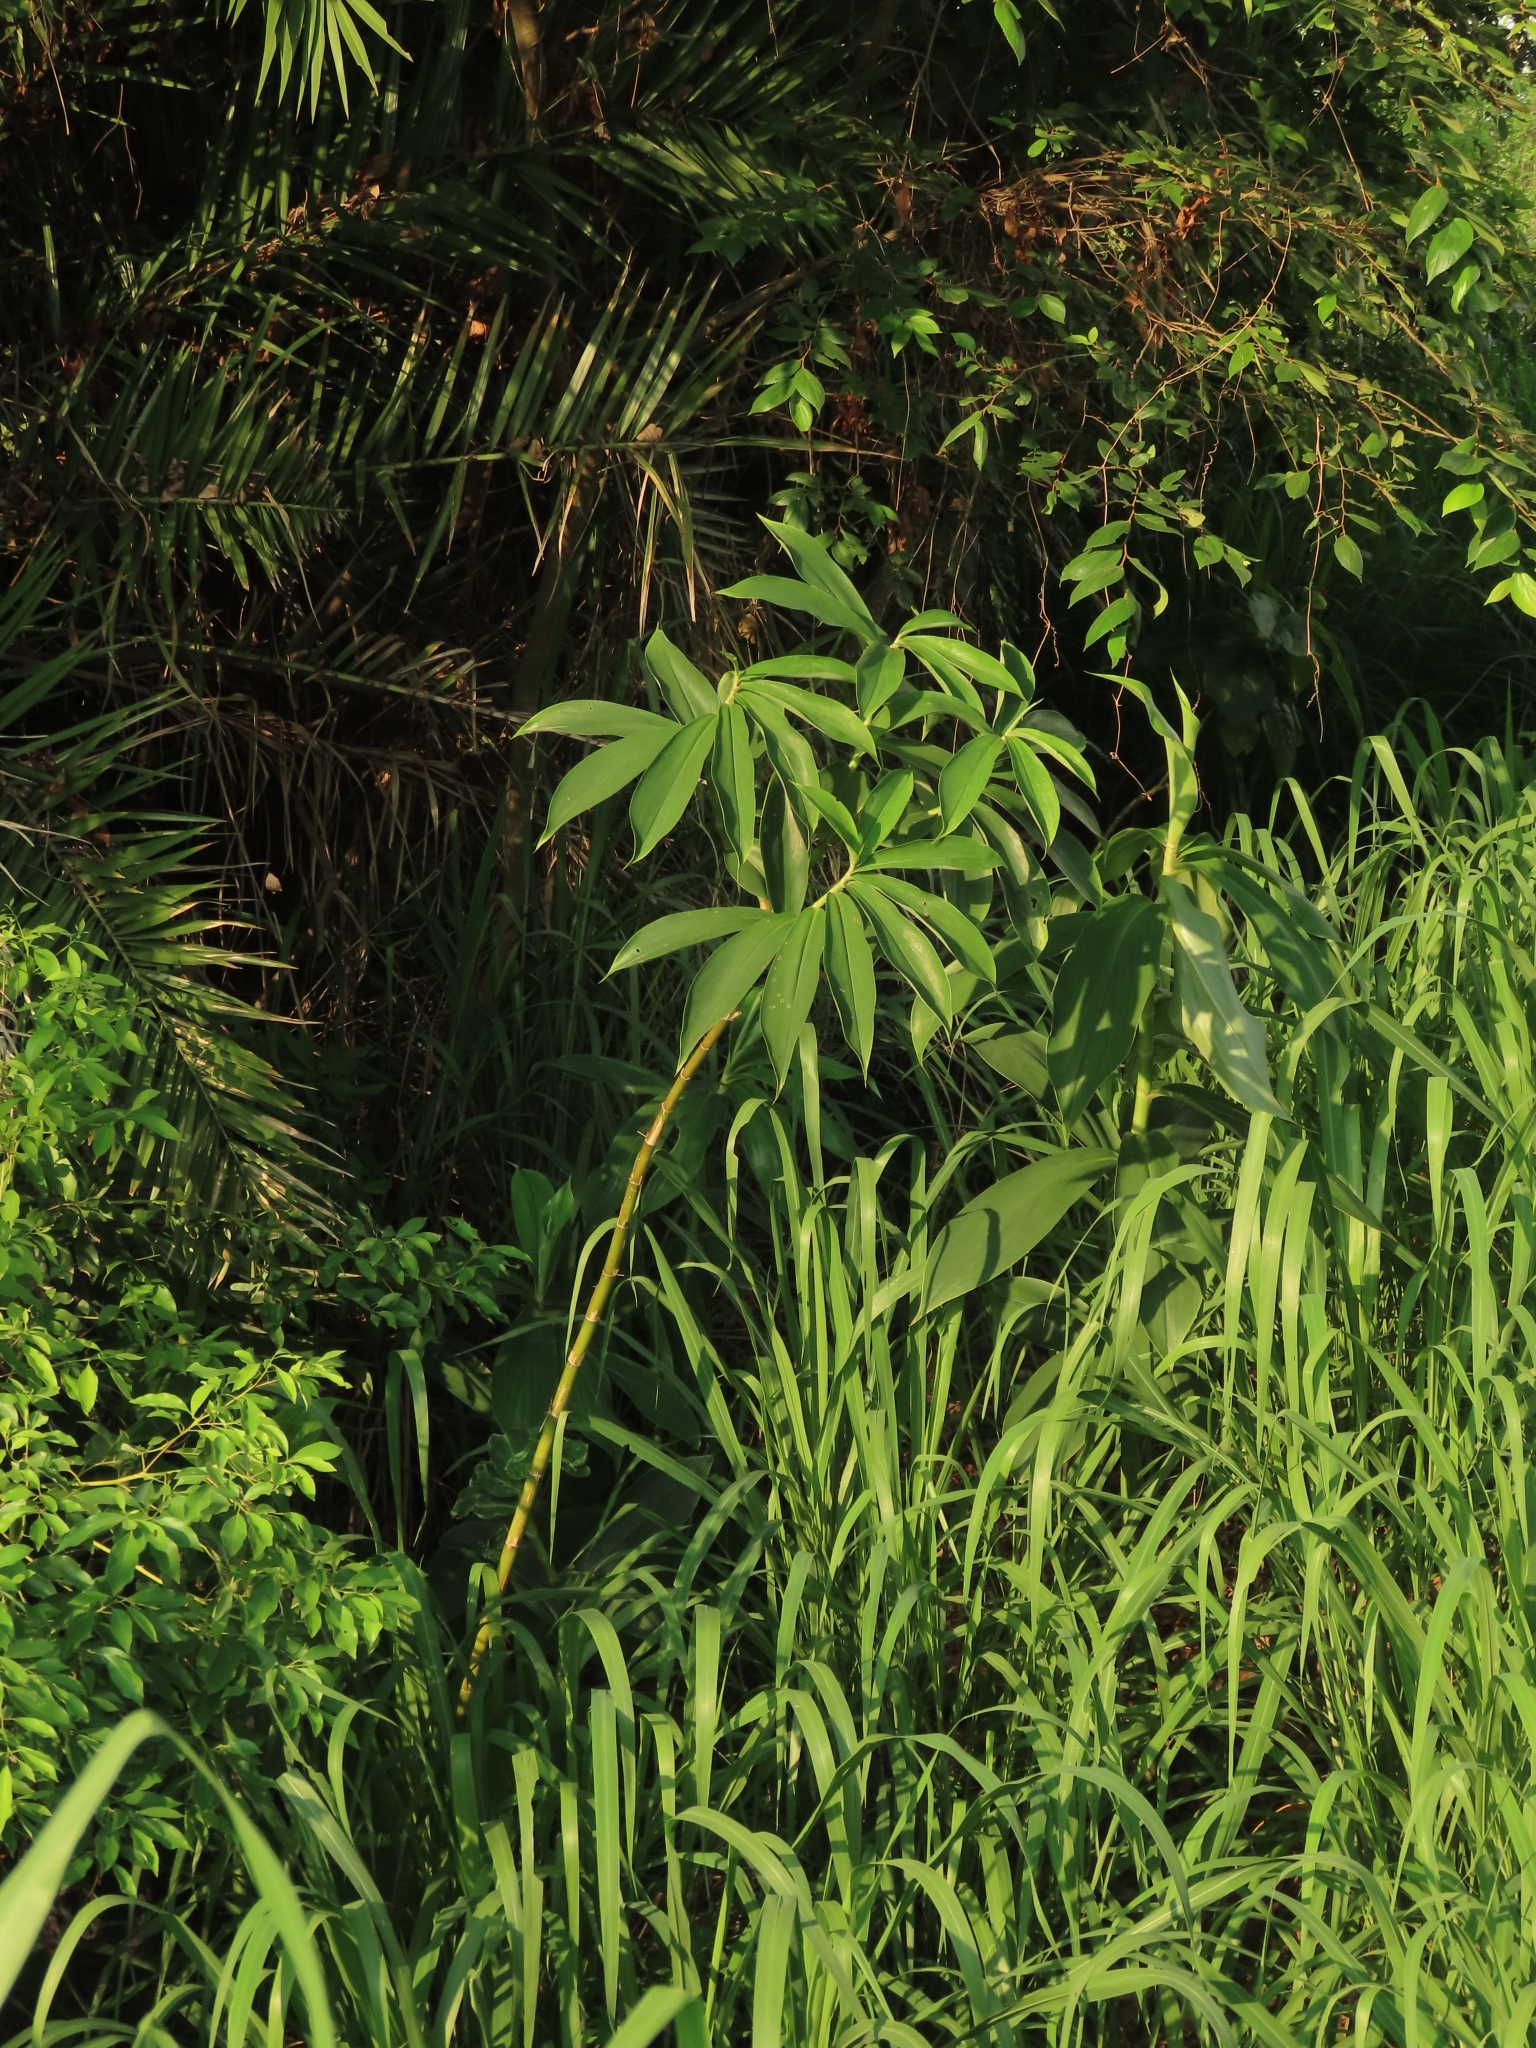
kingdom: Plantae
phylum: Tracheophyta
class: Liliopsida
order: Zingiberales
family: Costaceae
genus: Hellenia
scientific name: Hellenia speciosa
